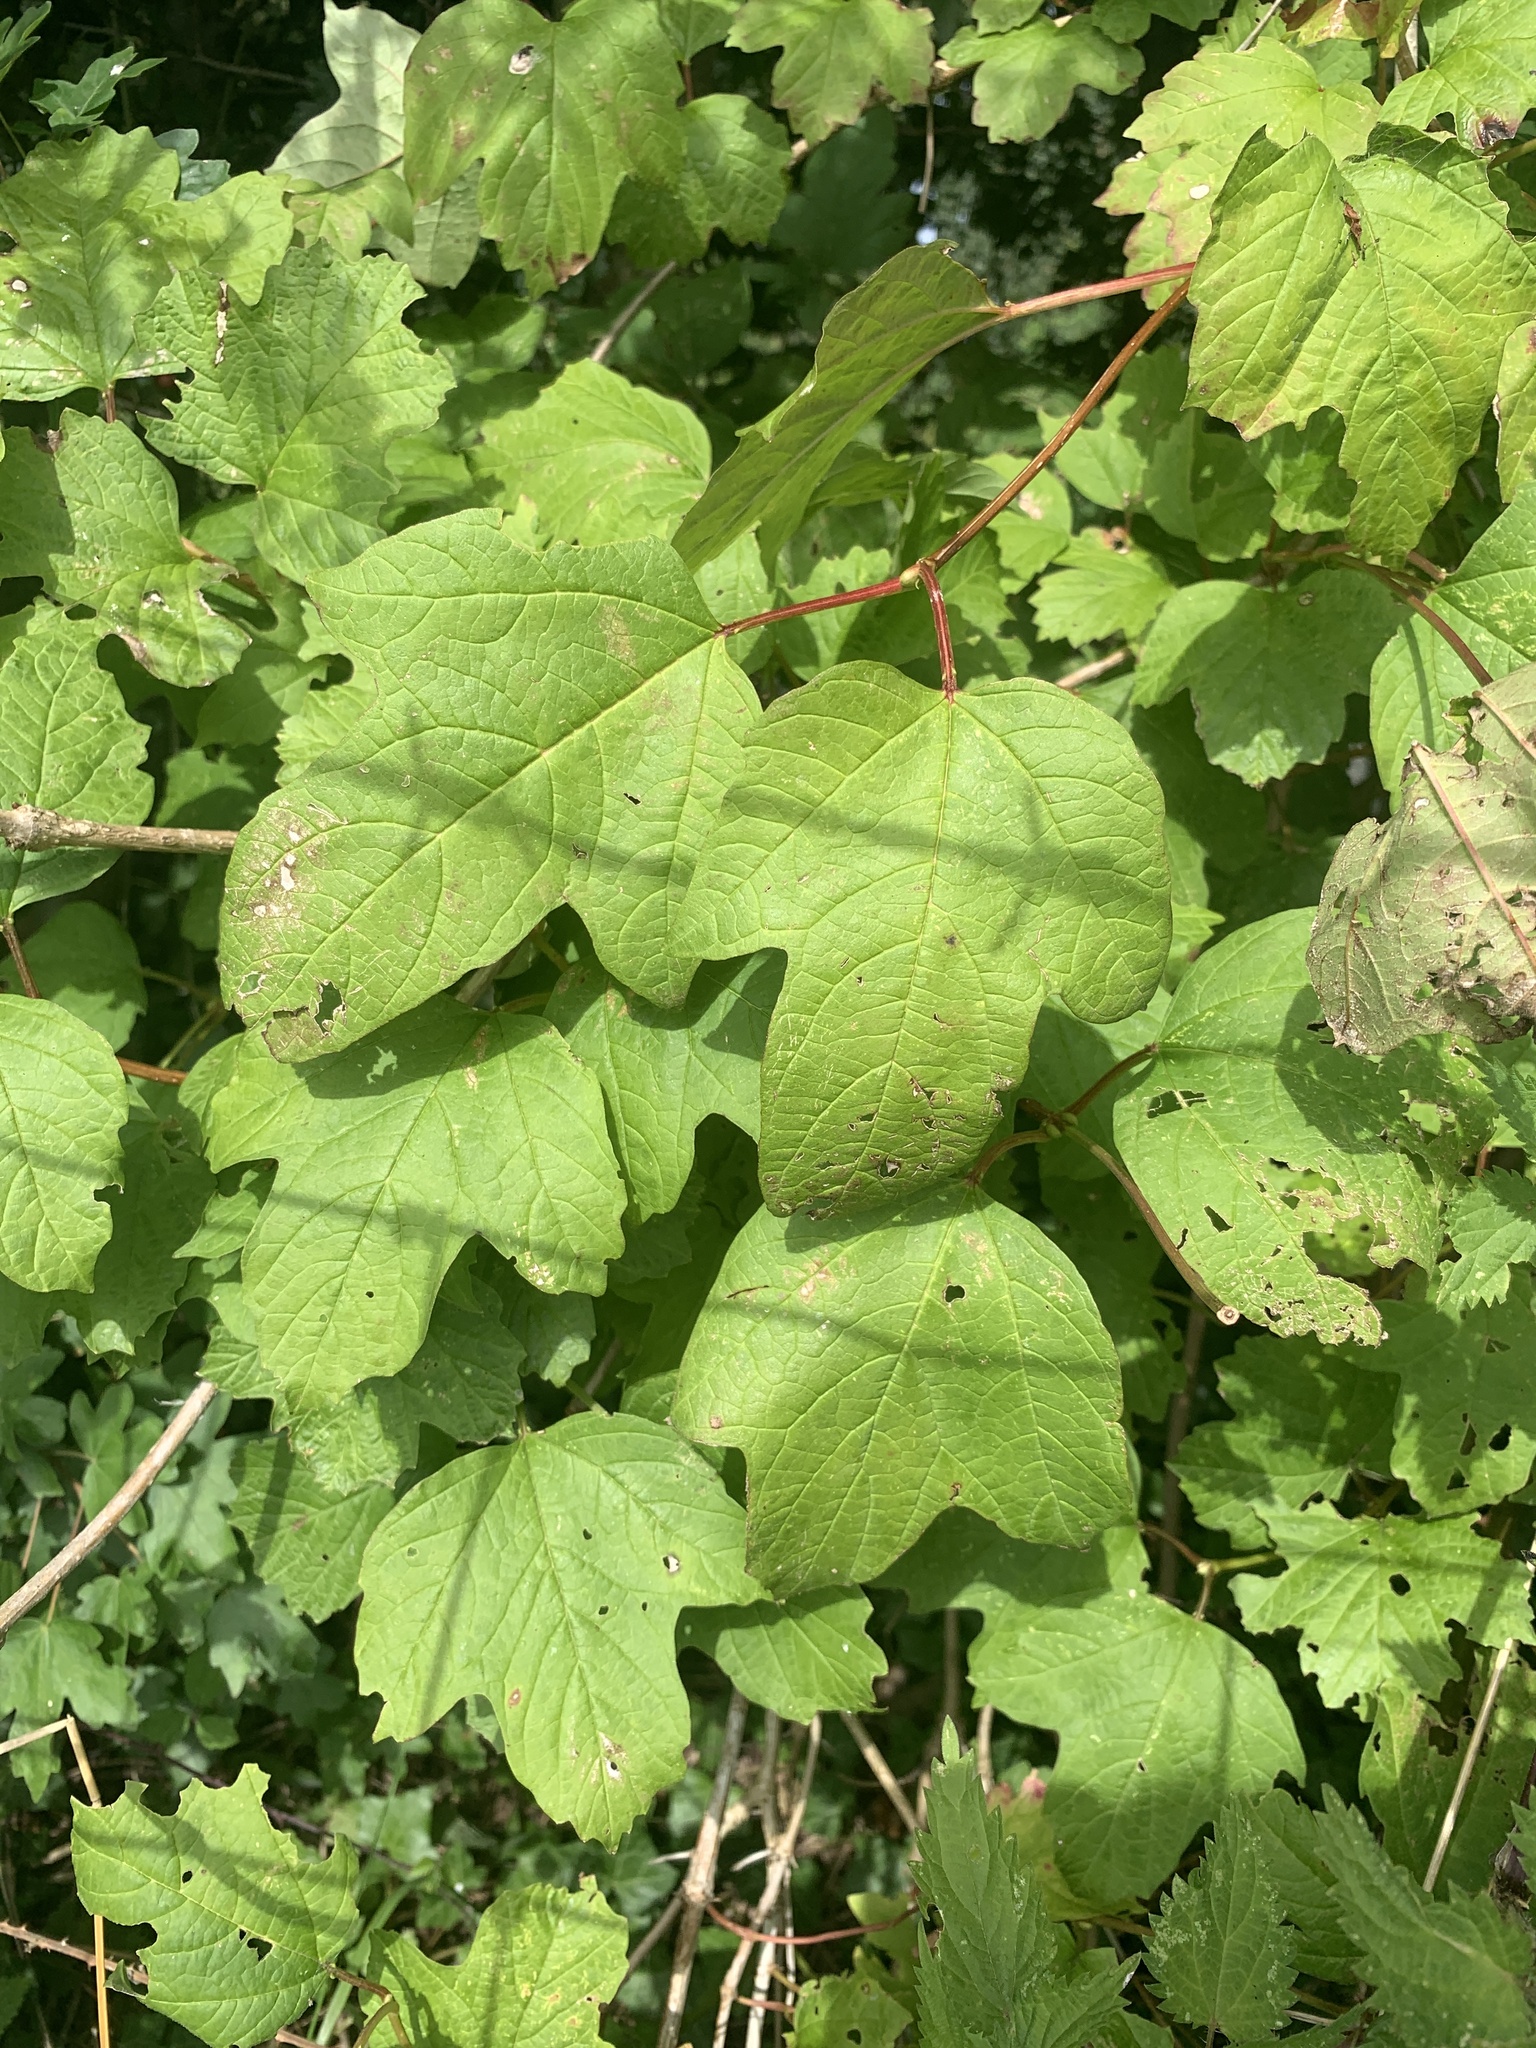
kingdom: Plantae
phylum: Tracheophyta
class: Magnoliopsida
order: Dipsacales
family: Viburnaceae
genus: Viburnum
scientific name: Viburnum opulus
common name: Guelder-rose
